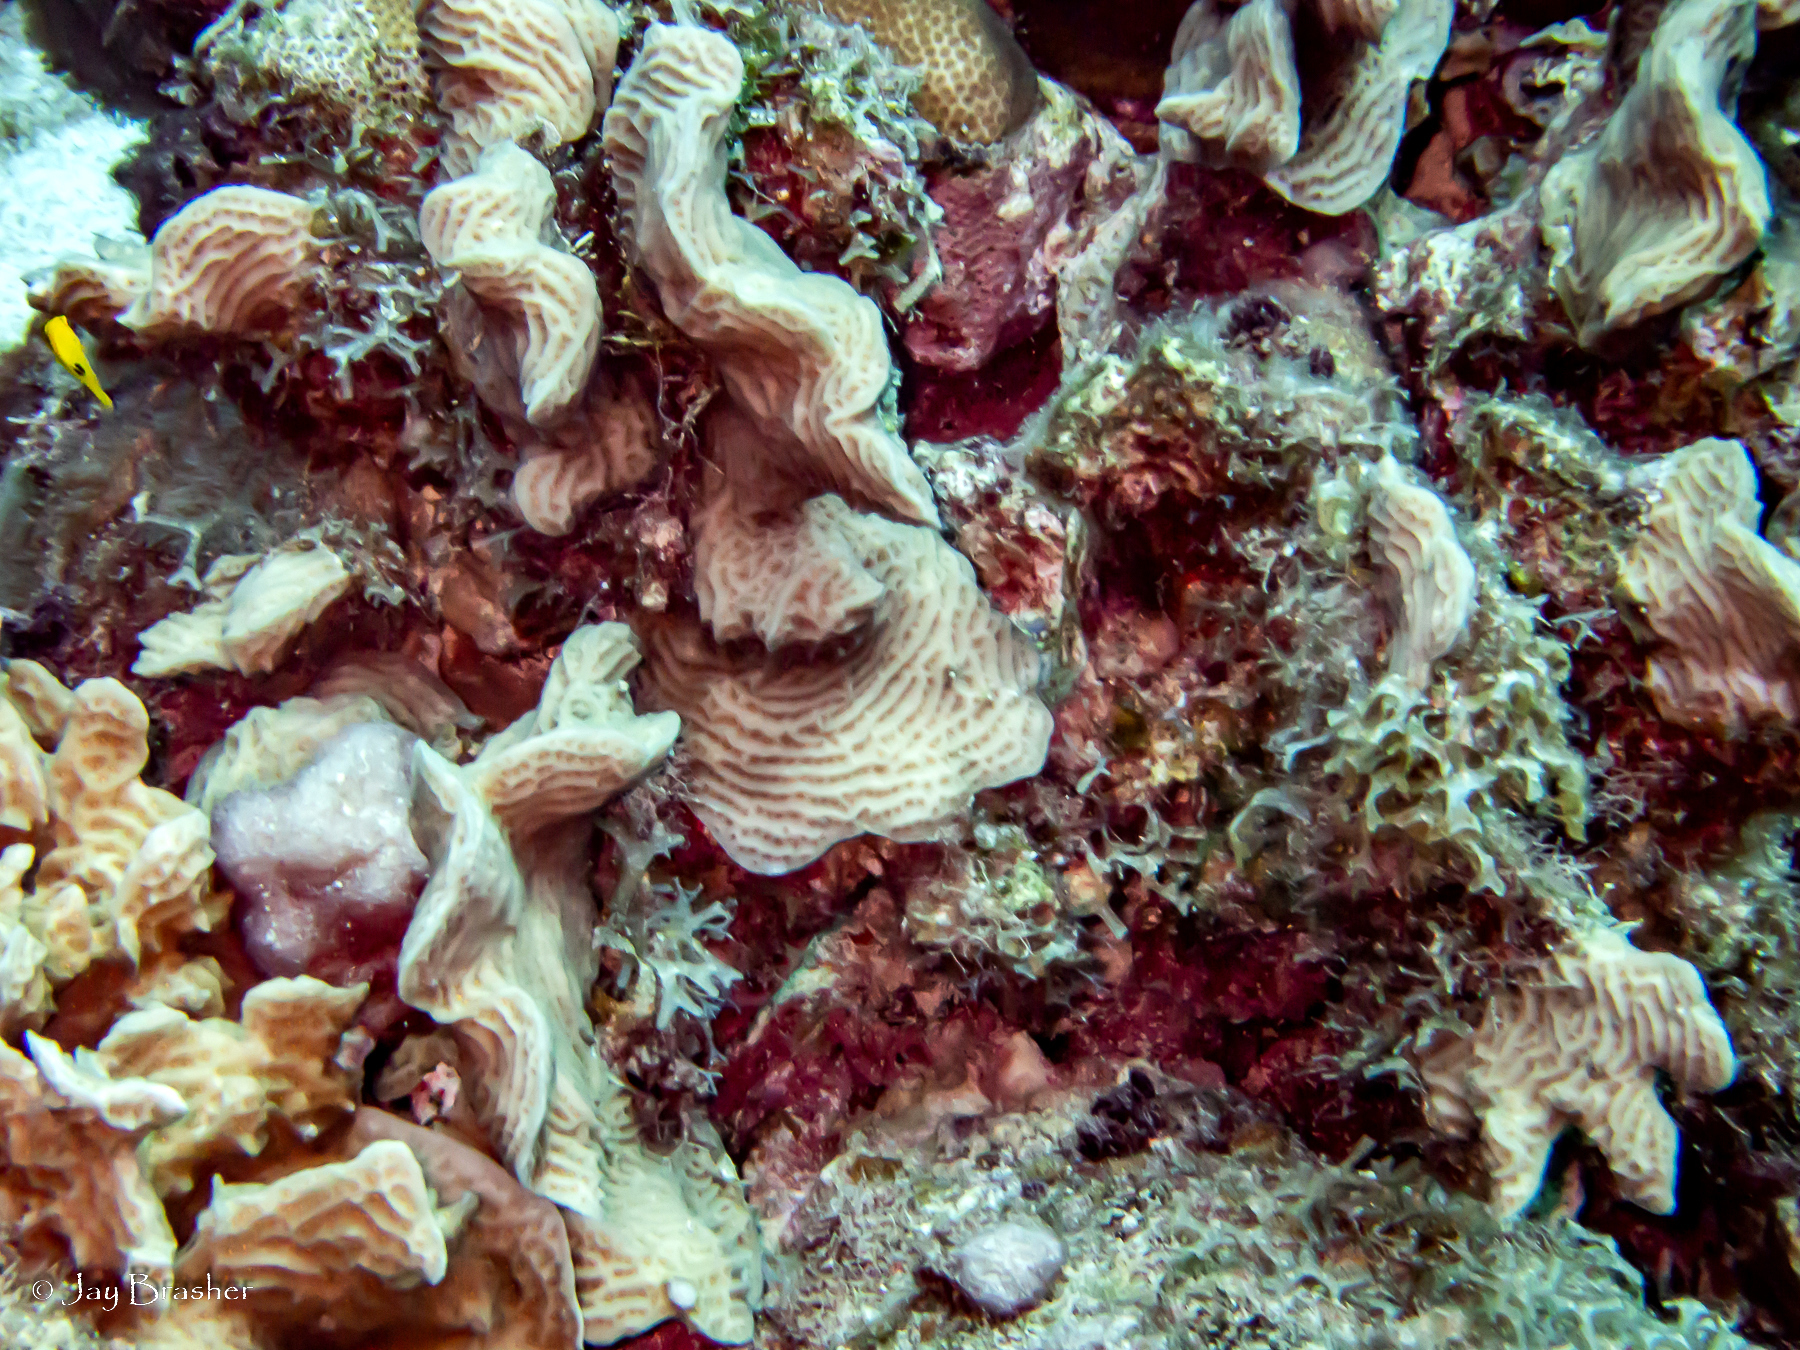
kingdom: Animalia
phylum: Cnidaria
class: Anthozoa
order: Scleractinia
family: Agariciidae
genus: Agaricia
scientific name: Agaricia agaricites
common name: Lettuce coral
